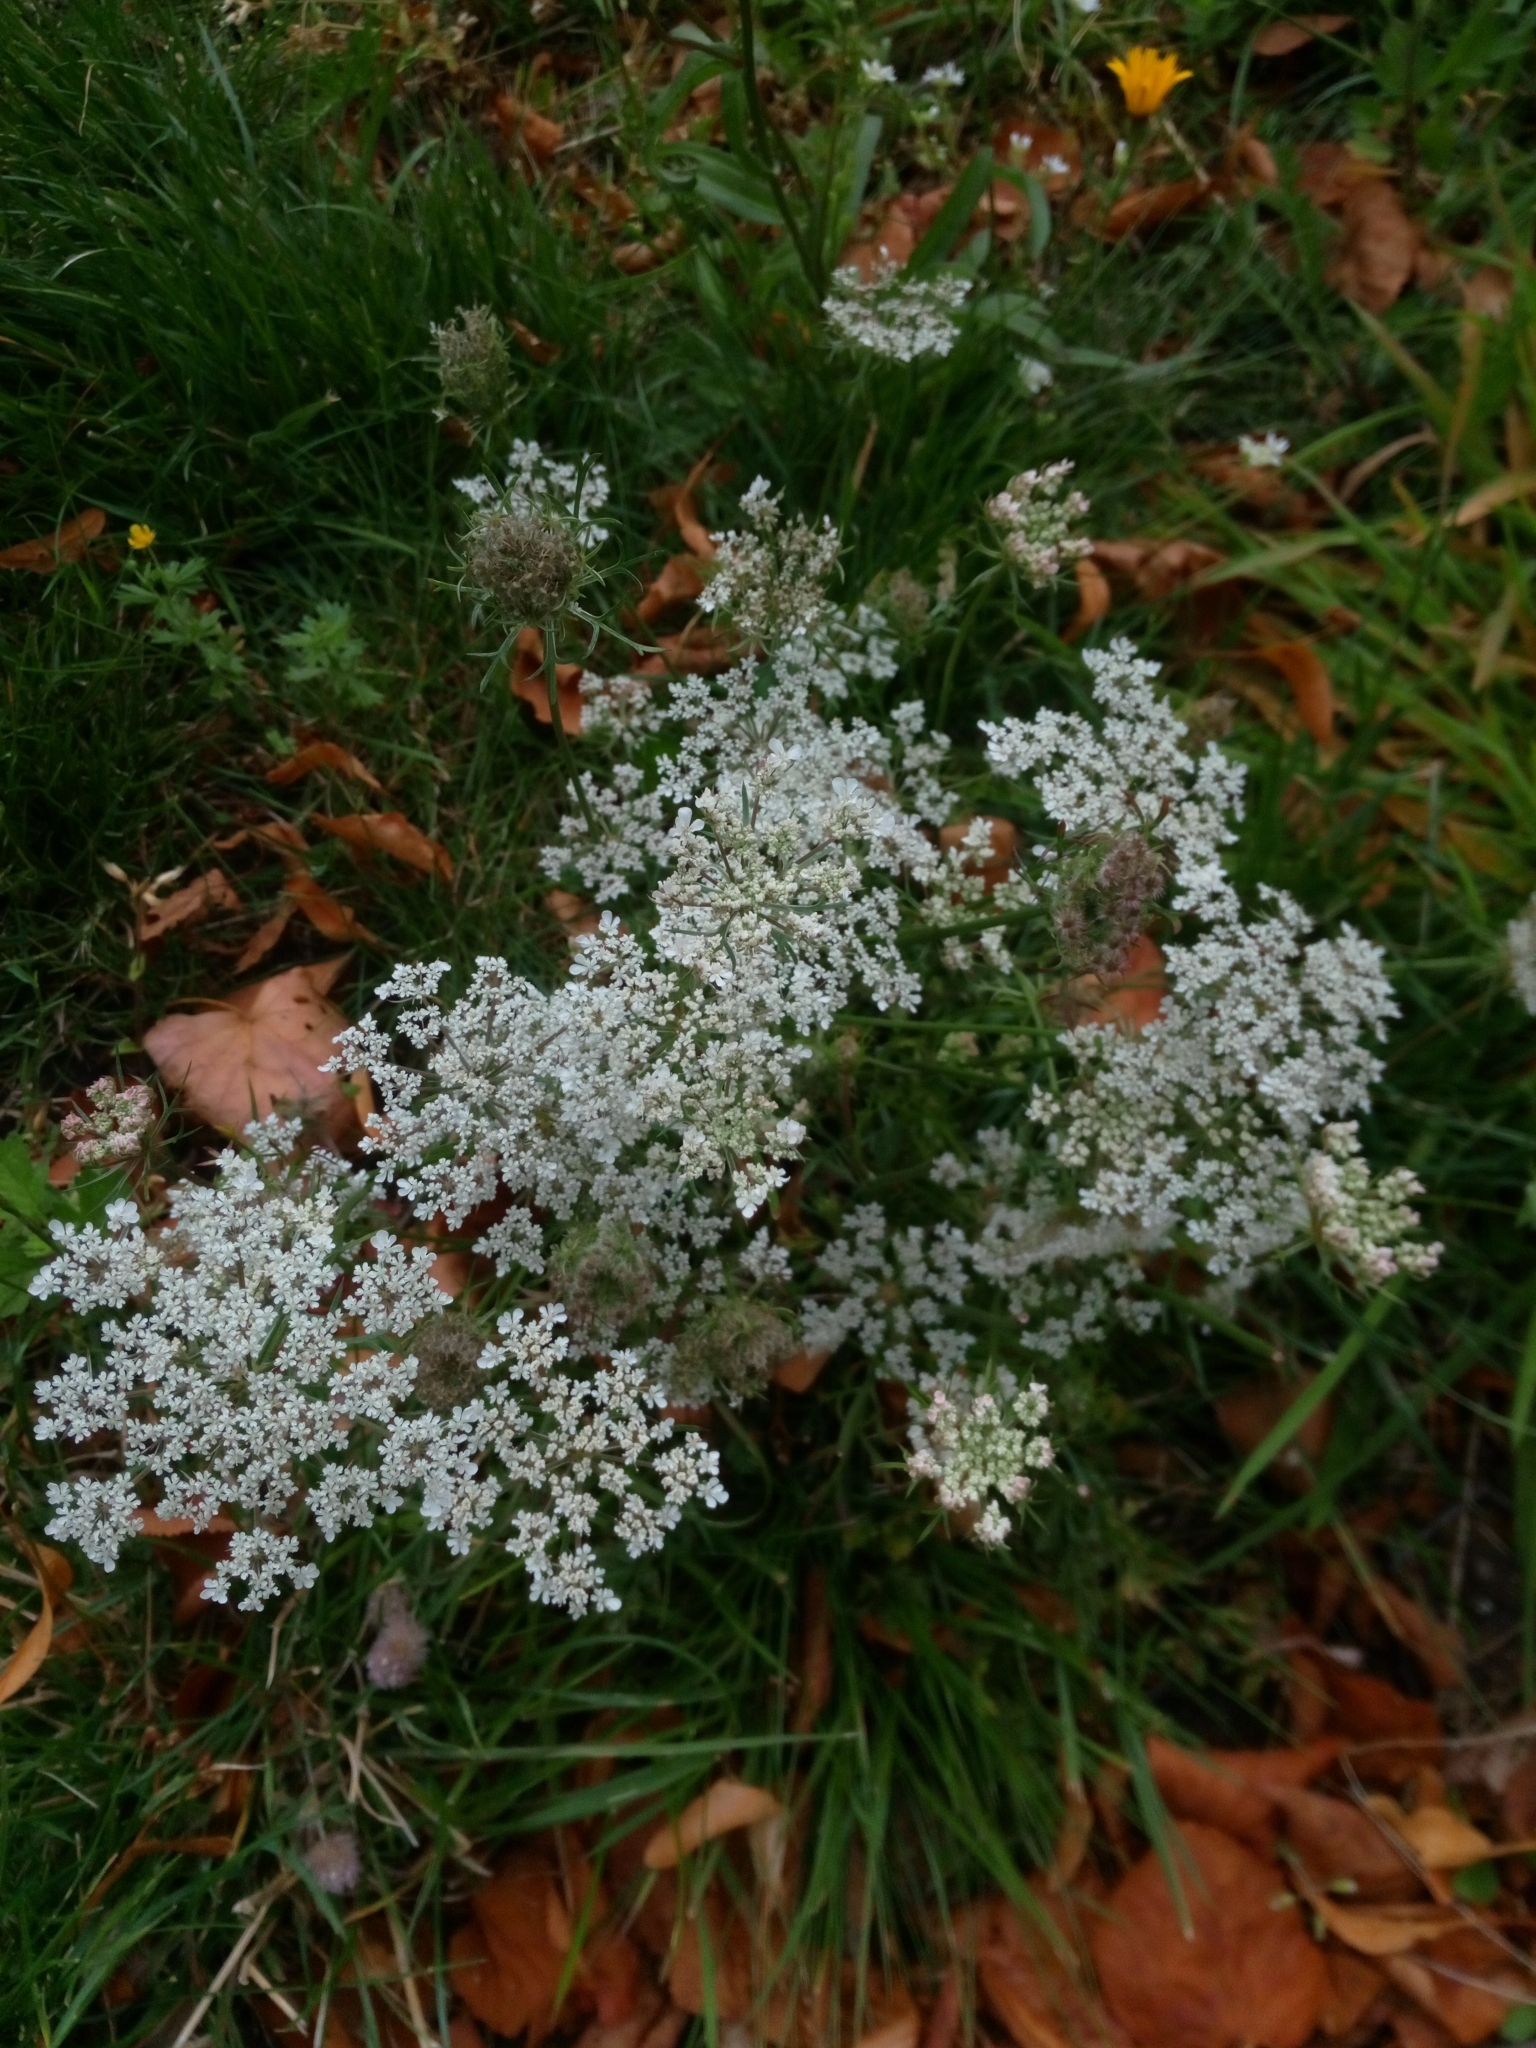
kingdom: Plantae
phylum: Tracheophyta
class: Magnoliopsida
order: Apiales
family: Apiaceae
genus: Daucus
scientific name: Daucus carota
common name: Wild carrot
